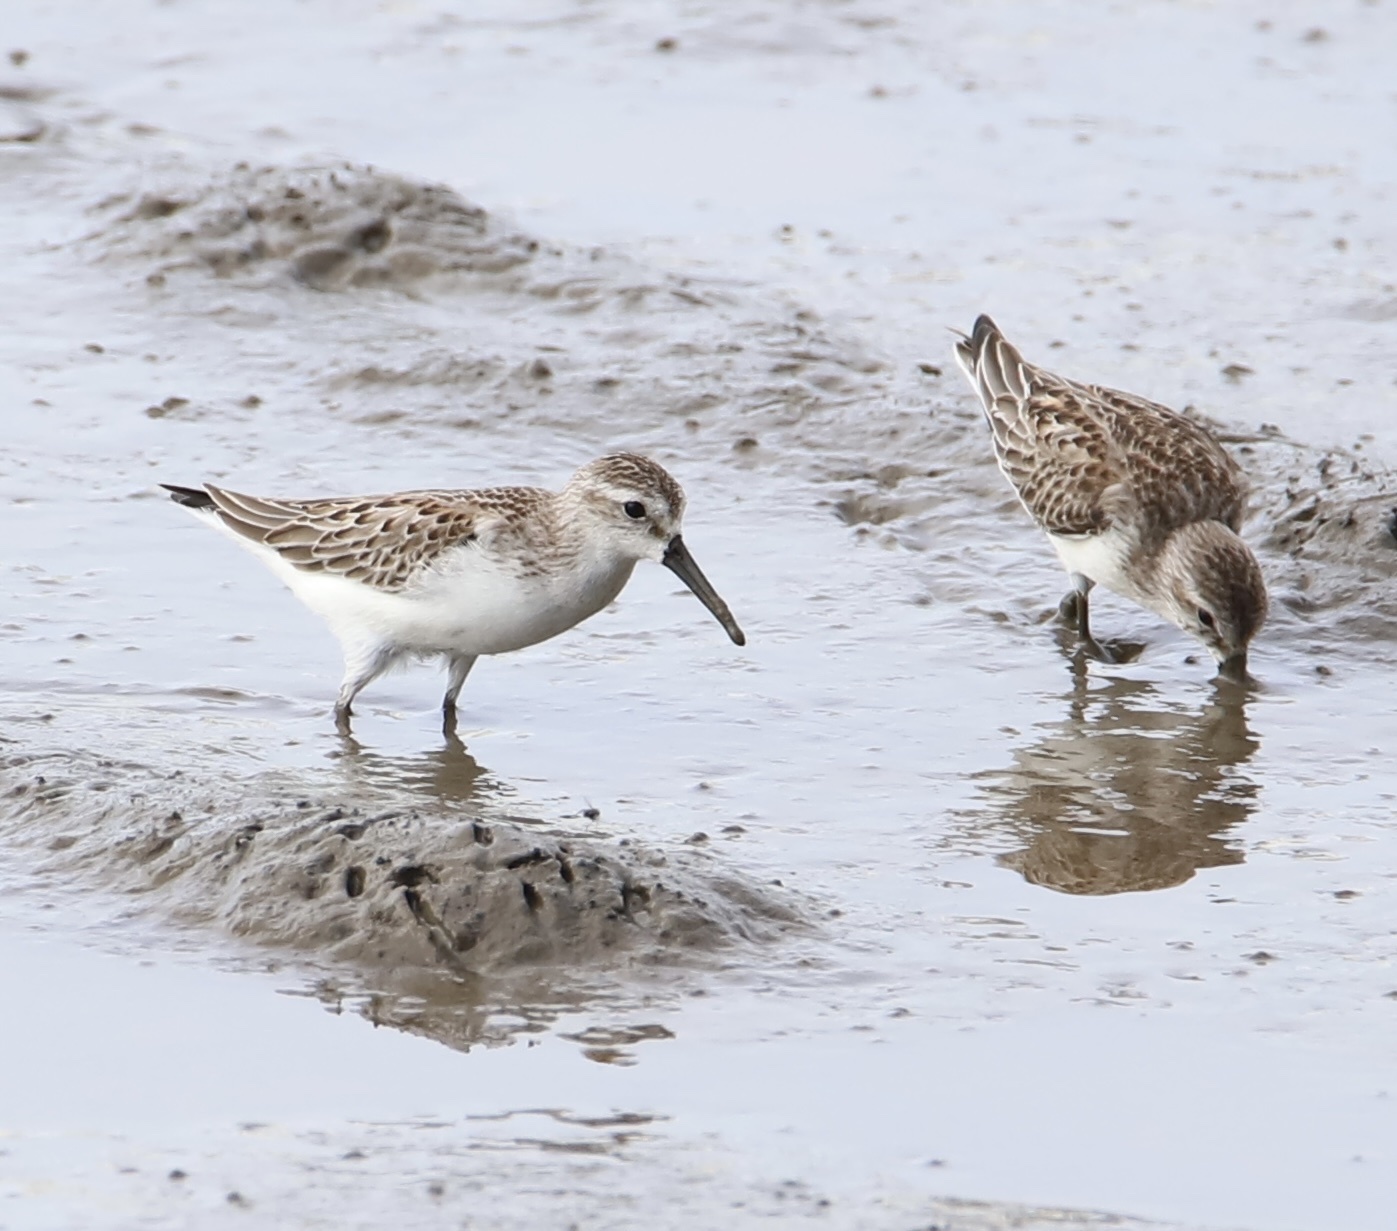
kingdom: Animalia
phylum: Chordata
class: Aves
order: Charadriiformes
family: Scolopacidae
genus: Calidris
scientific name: Calidris mauri
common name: Western sandpiper
